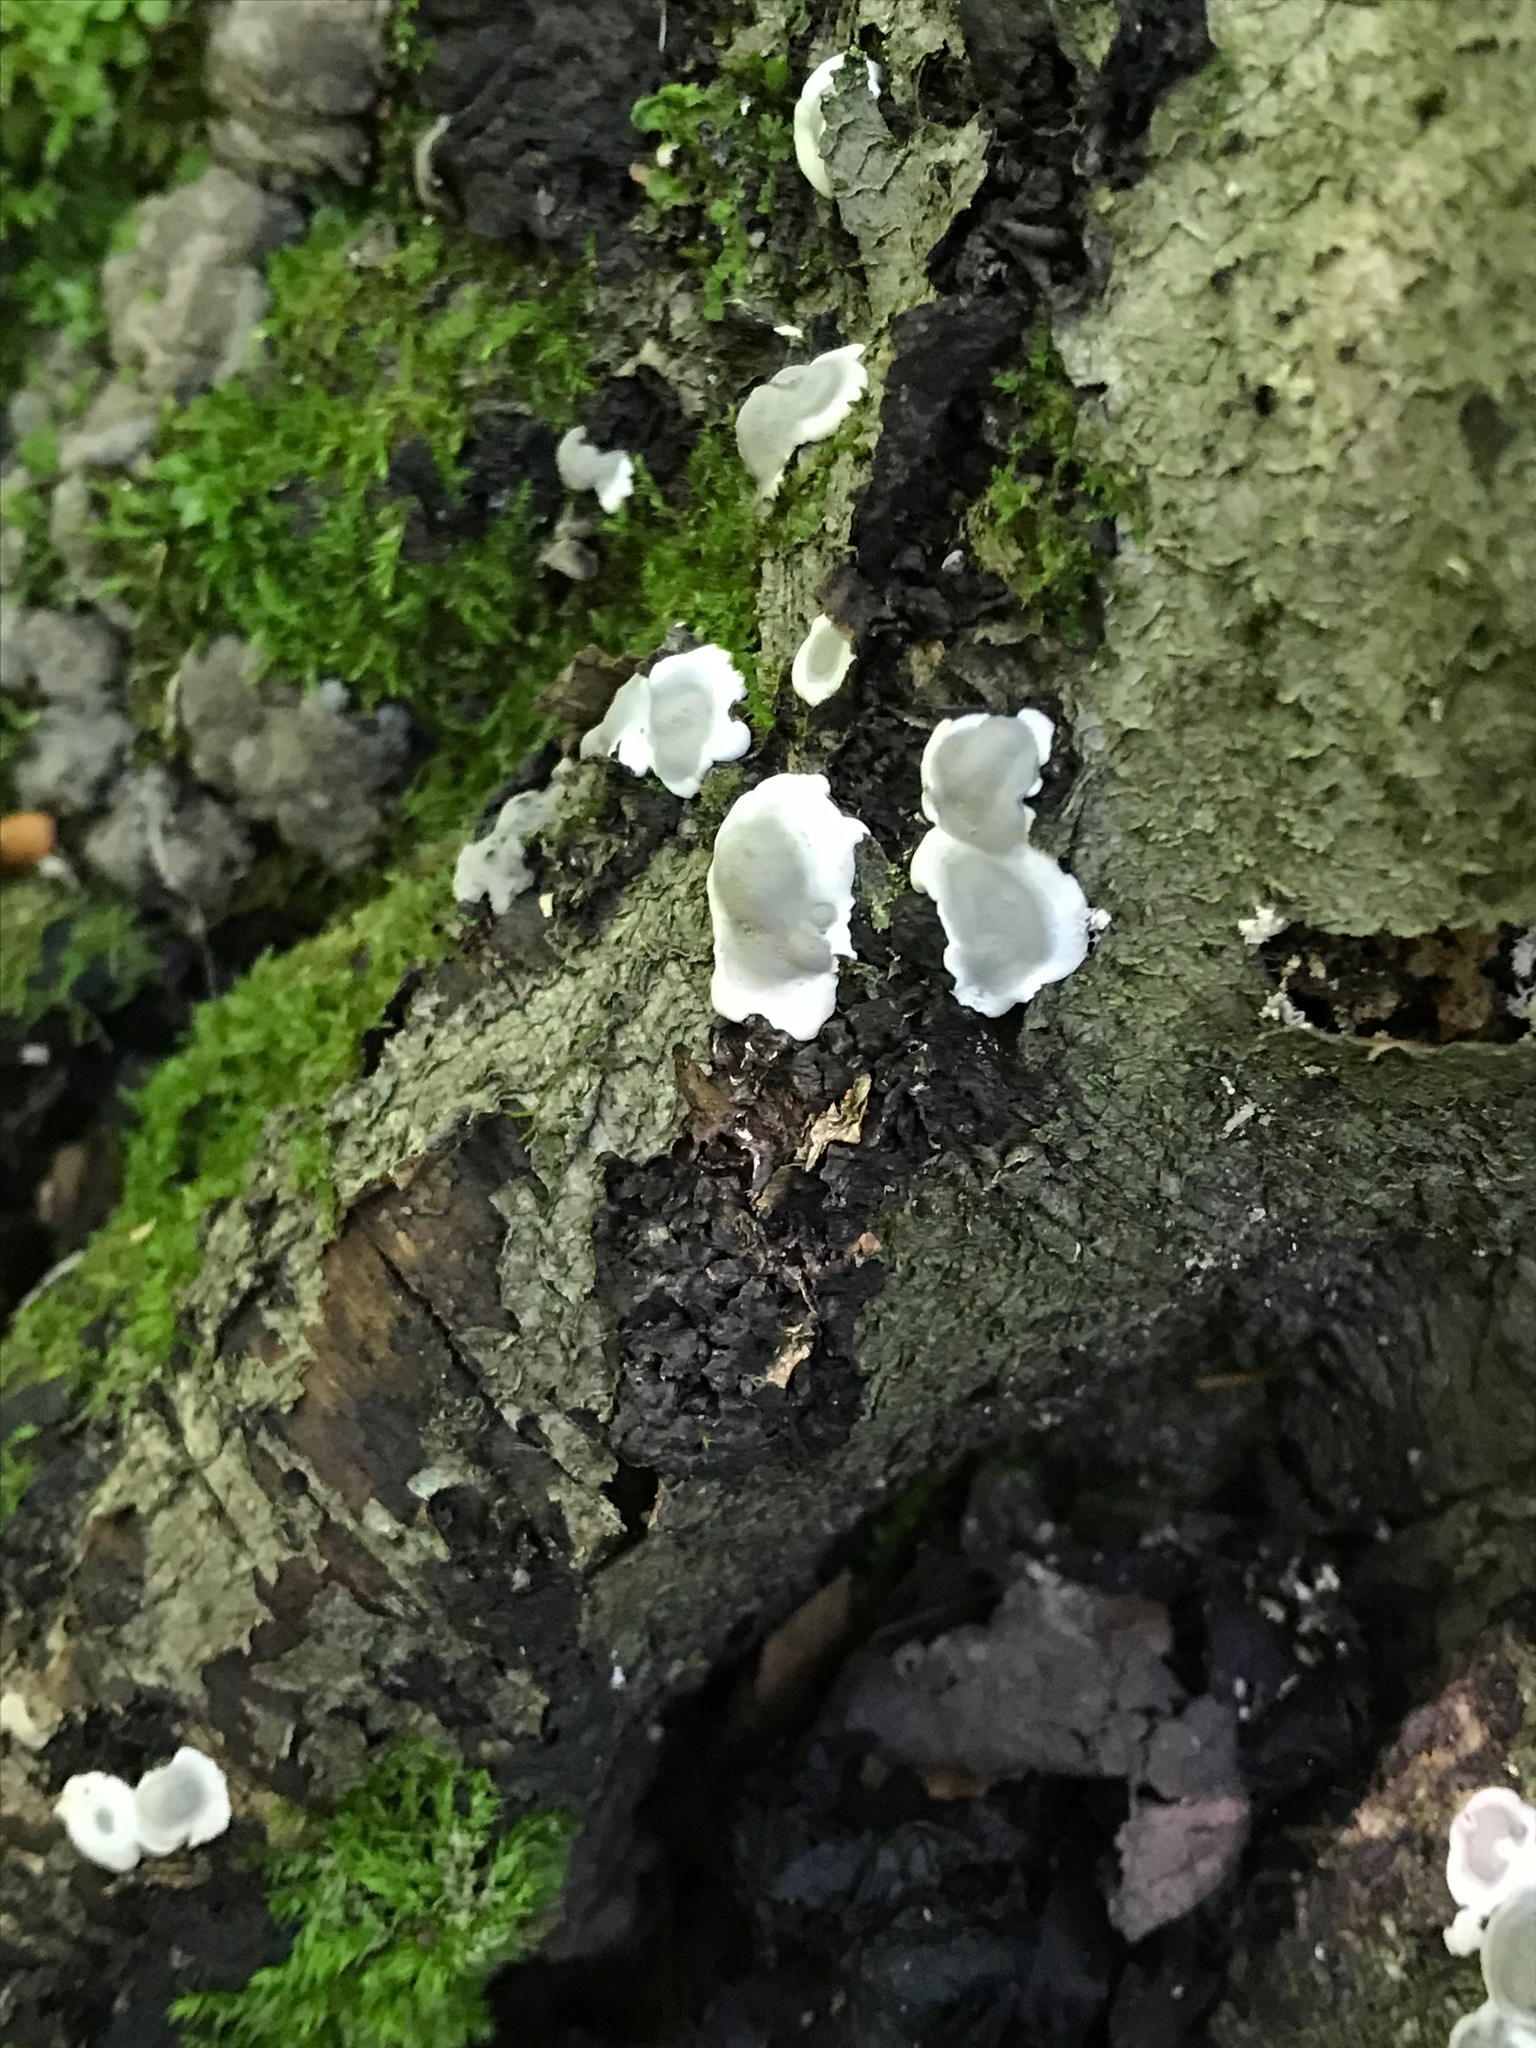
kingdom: Fungi
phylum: Ascomycota
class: Sordariomycetes
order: Xylariales
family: Xylariaceae
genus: Kretzschmaria
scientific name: Kretzschmaria deusta
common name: Brittle cinder
